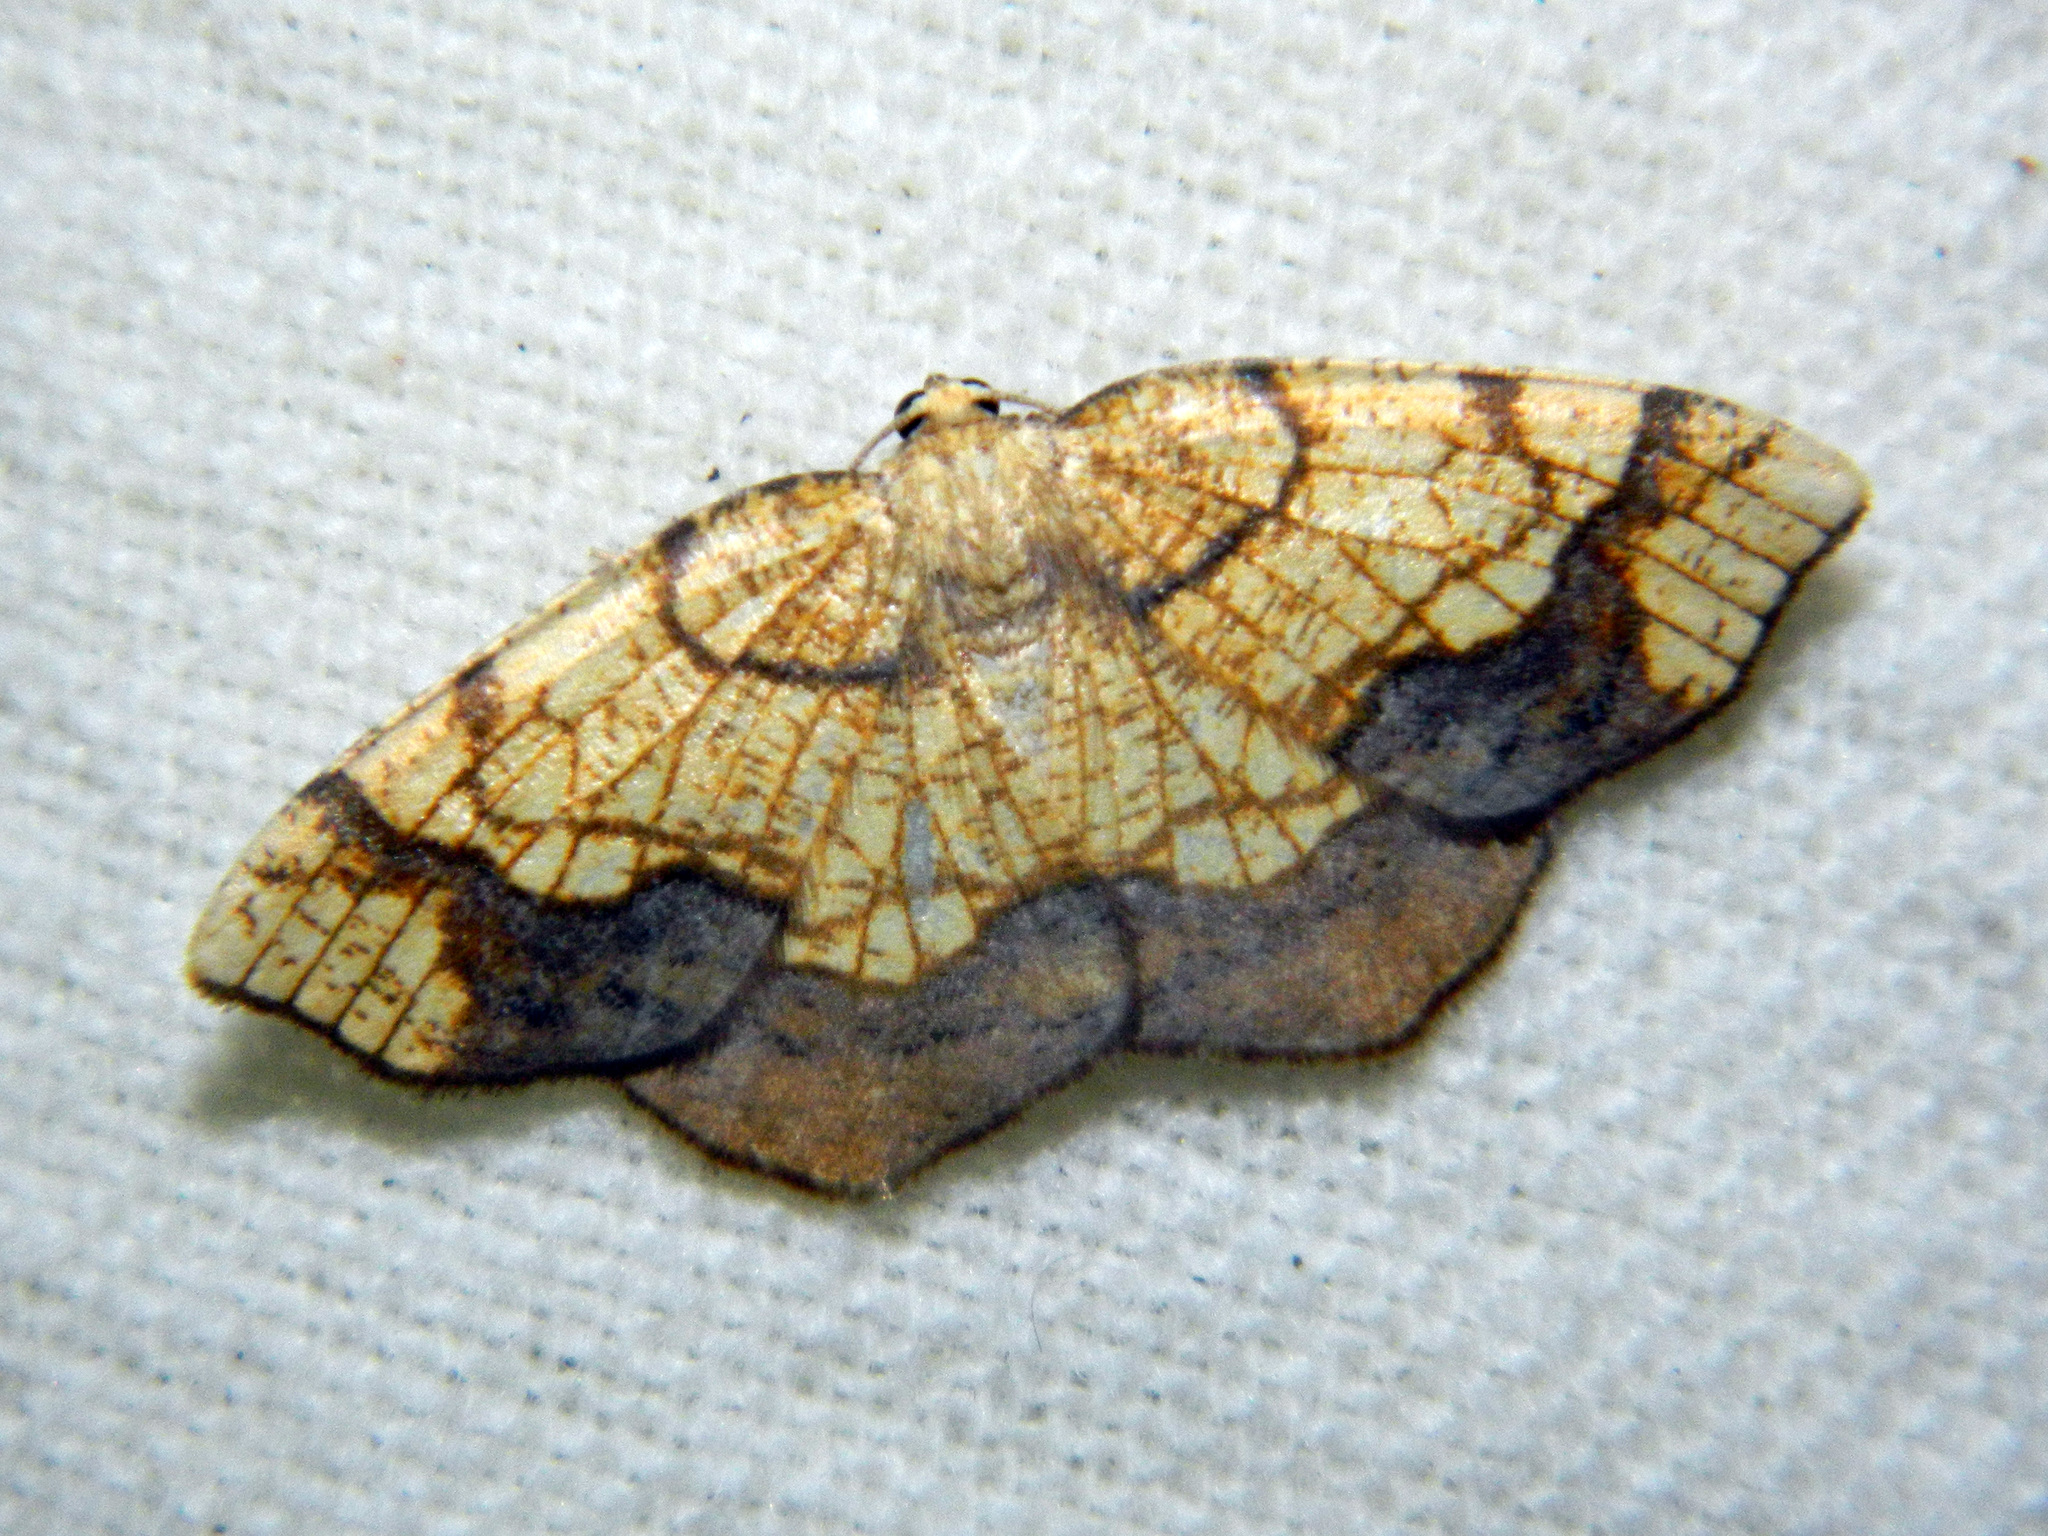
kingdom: Animalia
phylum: Arthropoda
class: Insecta
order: Lepidoptera
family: Geometridae
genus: Nematocampa
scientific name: Nematocampa resistaria
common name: Horned spanworm moth
